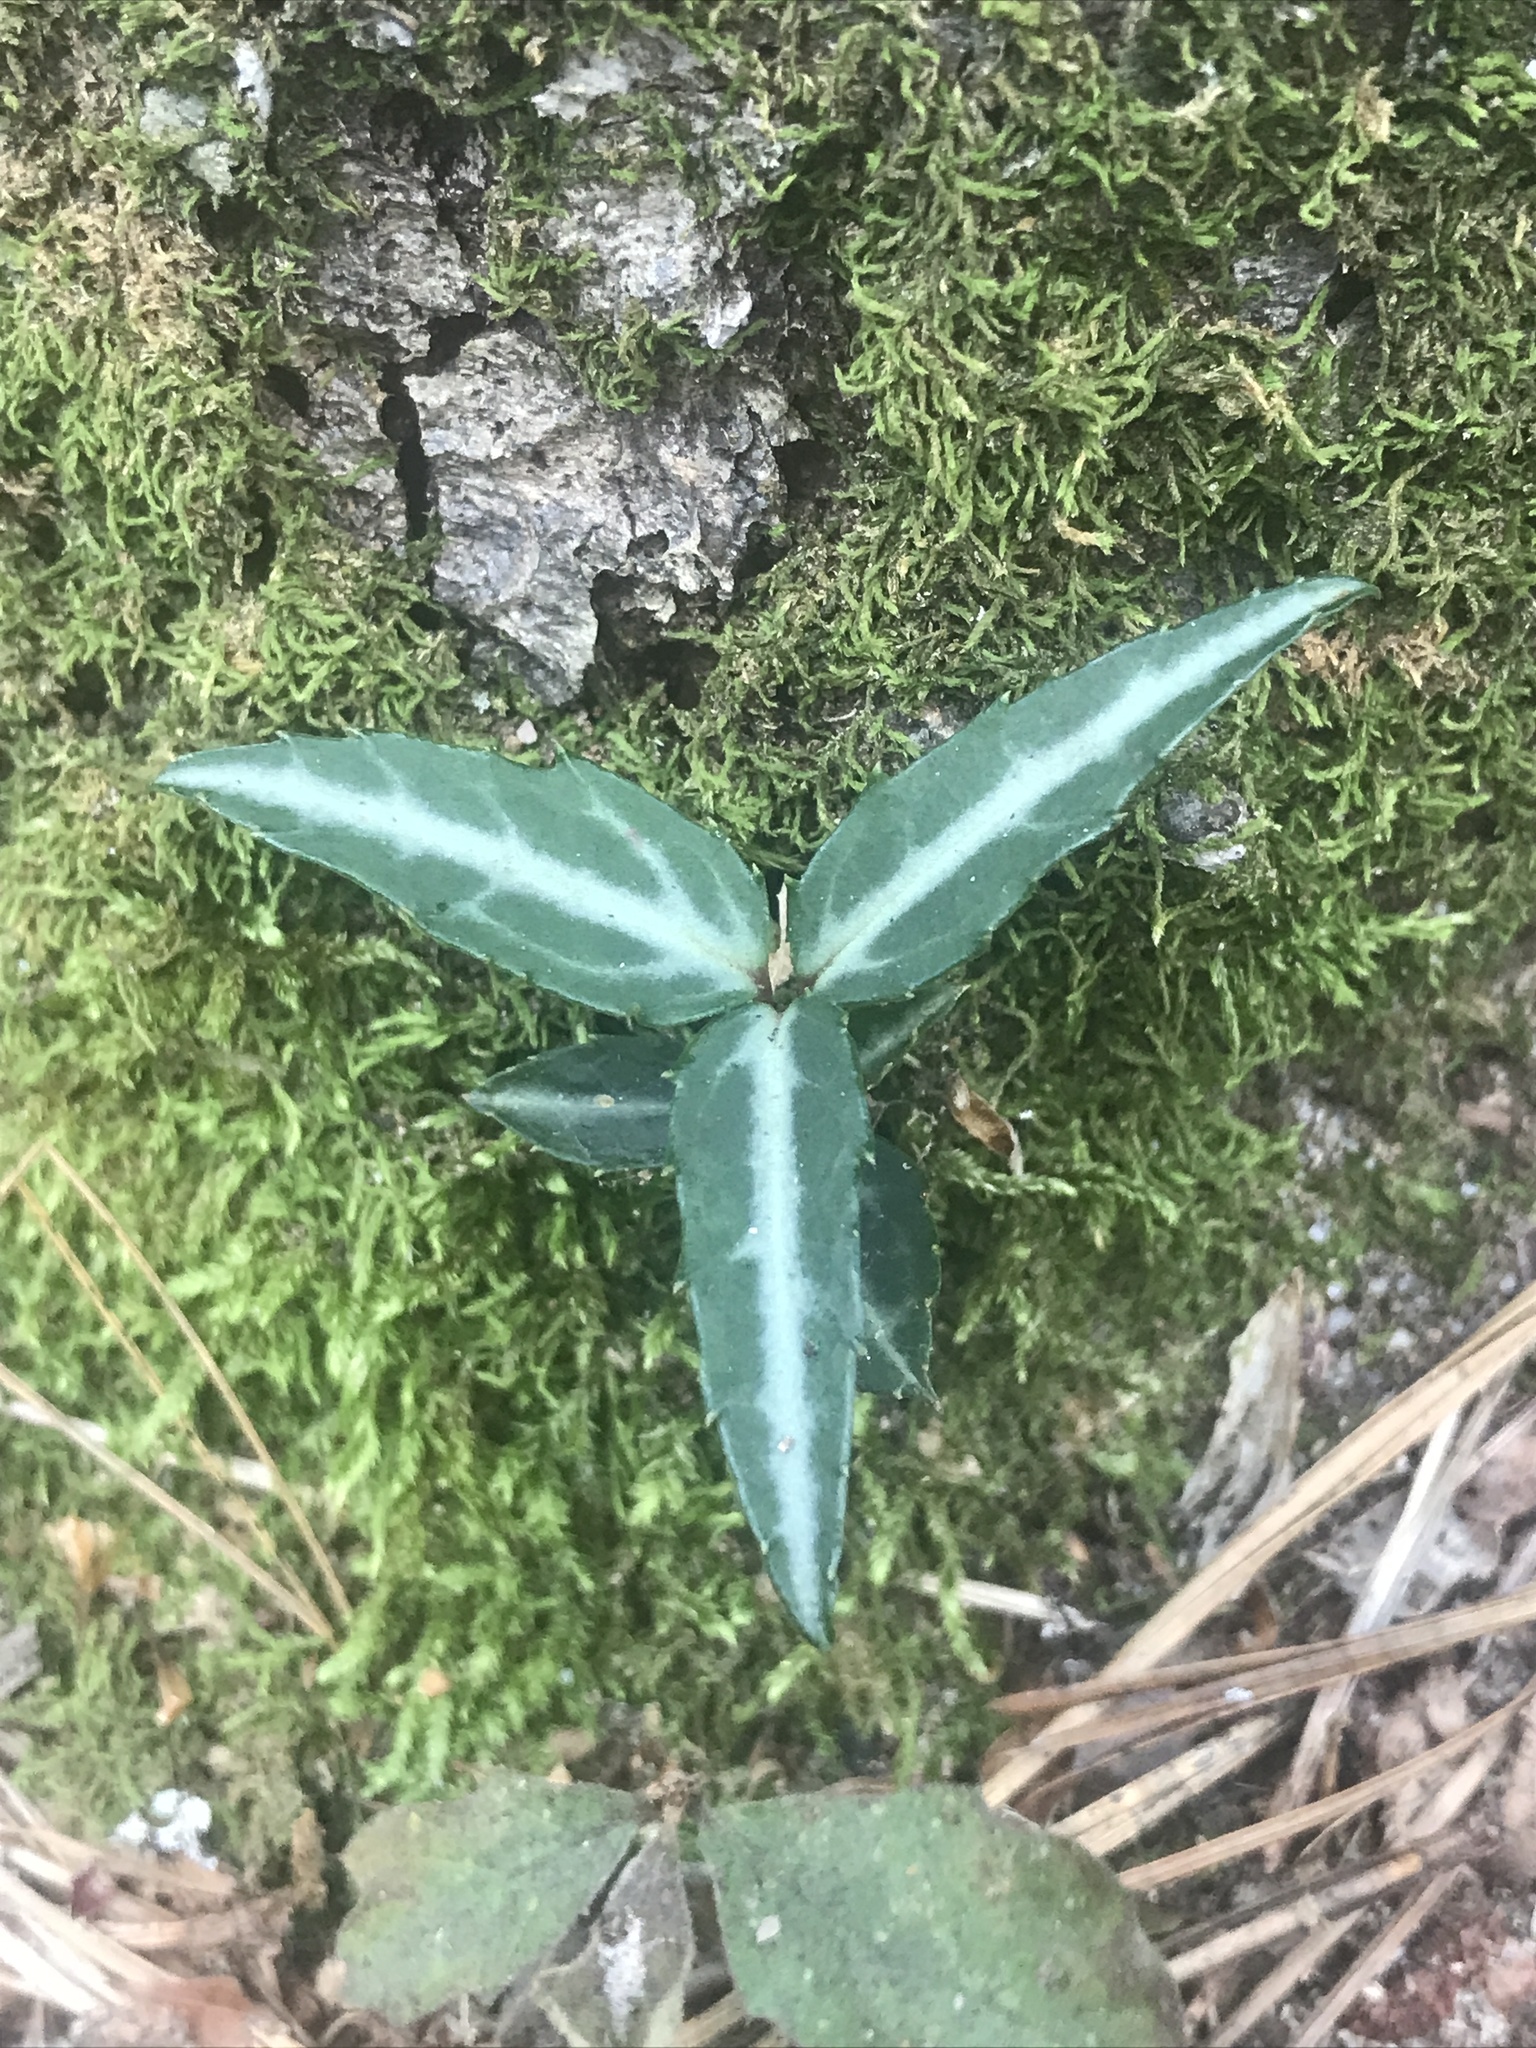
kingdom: Plantae
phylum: Tracheophyta
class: Magnoliopsida
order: Ericales
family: Ericaceae
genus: Chimaphila
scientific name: Chimaphila maculata
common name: Spotted pipsissewa
